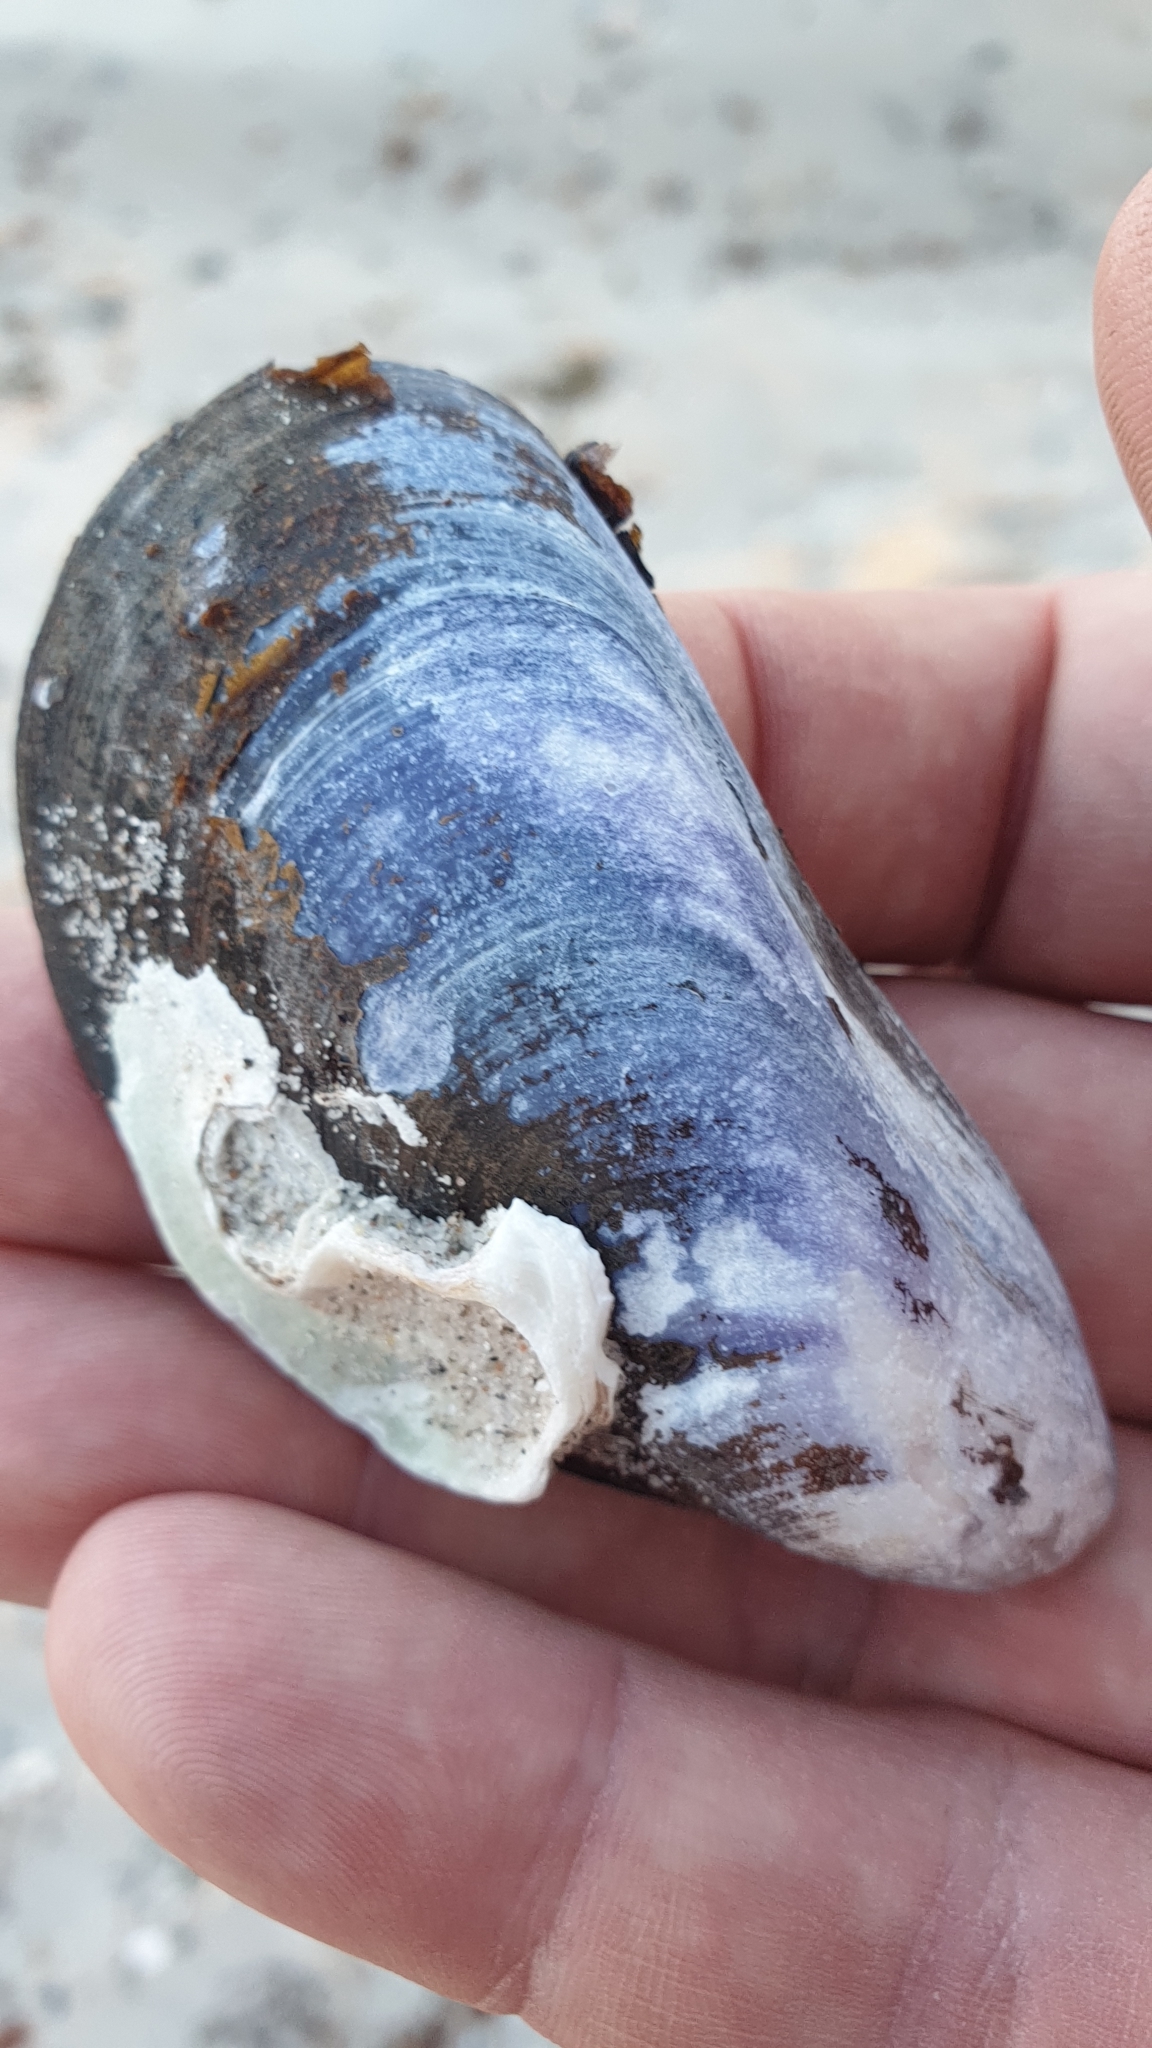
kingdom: Animalia
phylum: Mollusca
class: Bivalvia
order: Mytilida
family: Mytilidae
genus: Mytilus
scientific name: Mytilus edulis
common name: Blue mussel
